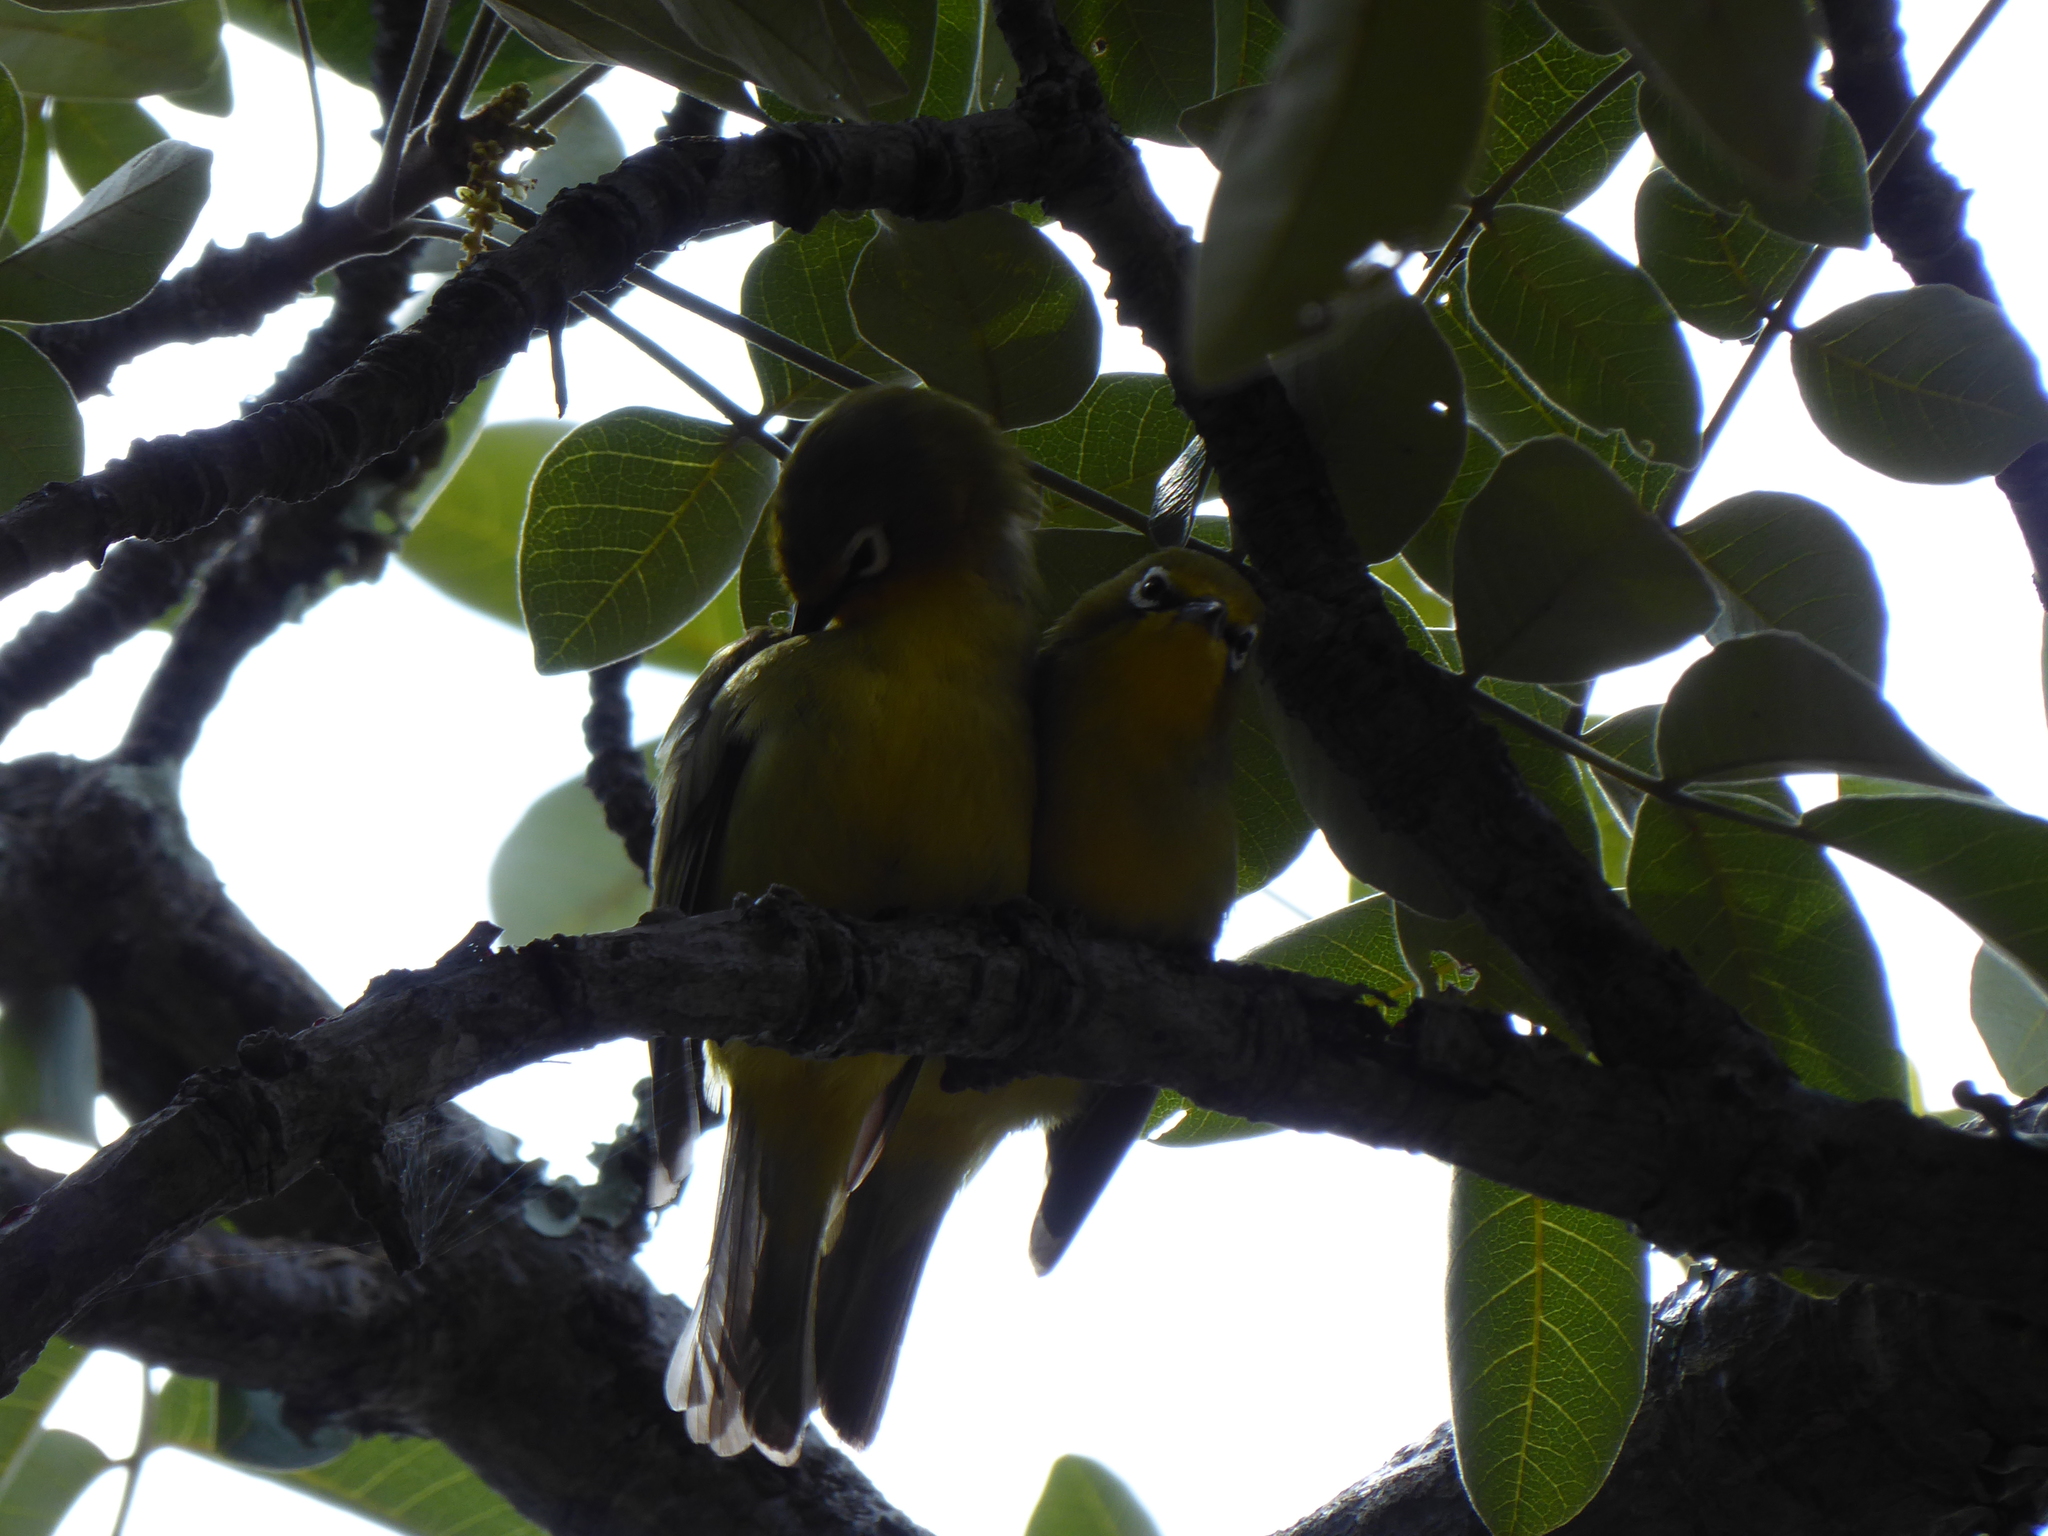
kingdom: Animalia
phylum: Chordata
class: Aves
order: Passeriformes
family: Zosteropidae
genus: Zosterops
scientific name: Zosterops virens
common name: Cape white-eye
